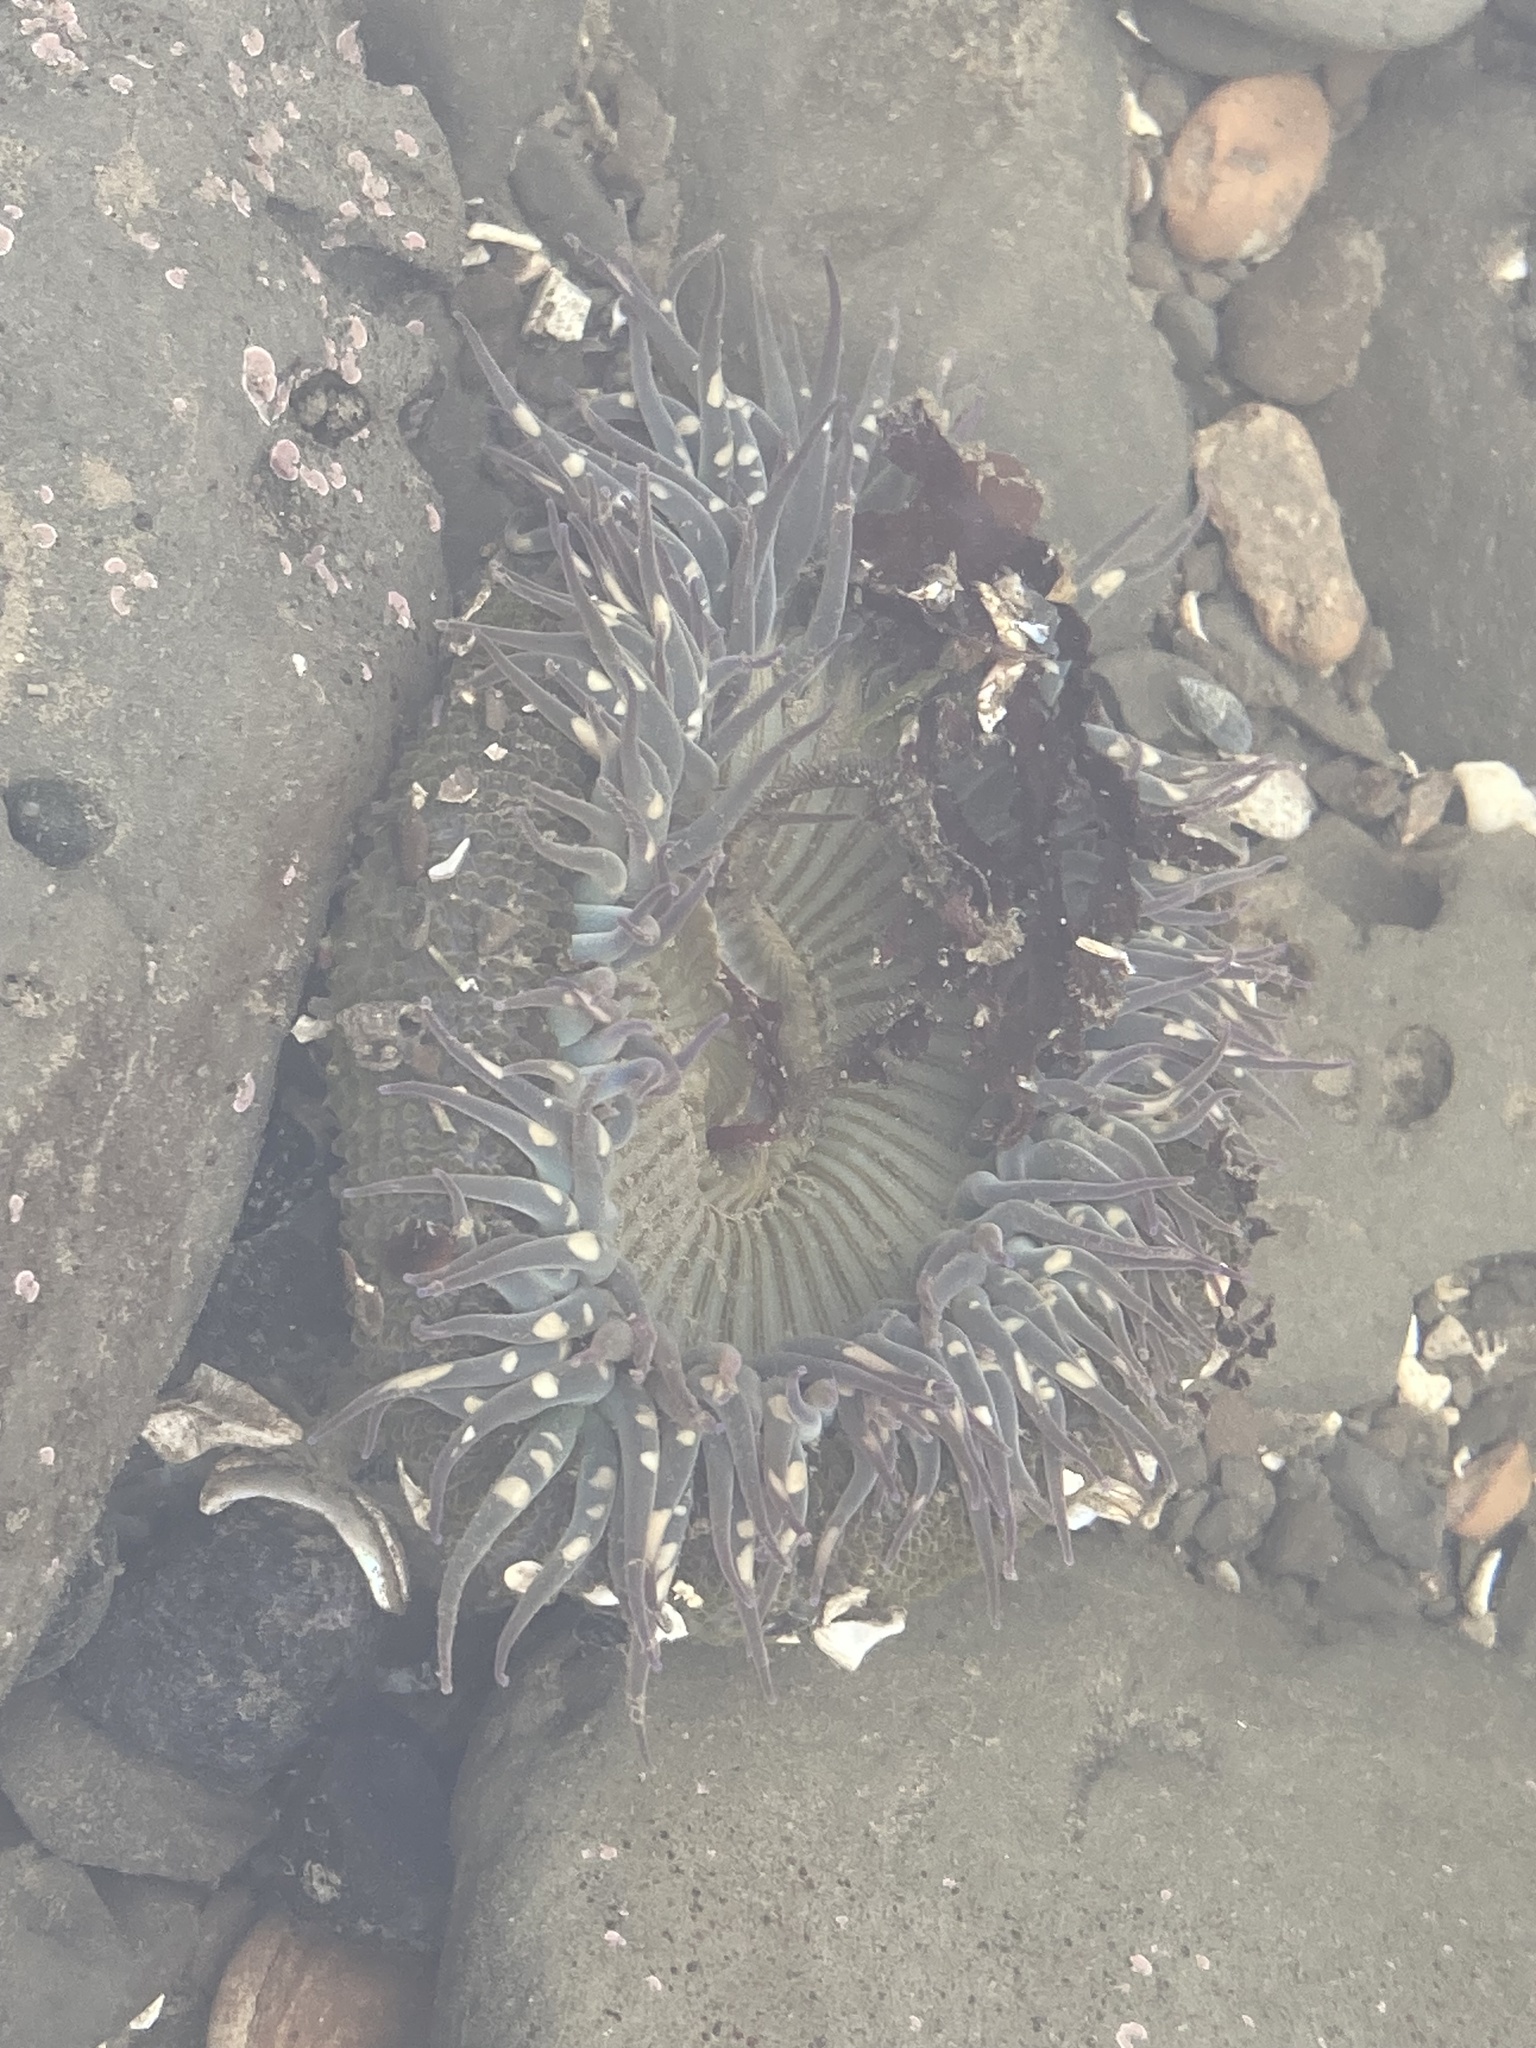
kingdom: Animalia
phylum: Cnidaria
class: Anthozoa
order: Actiniaria
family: Actiniidae
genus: Anthopleura
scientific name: Anthopleura sola
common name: Sun anemone
